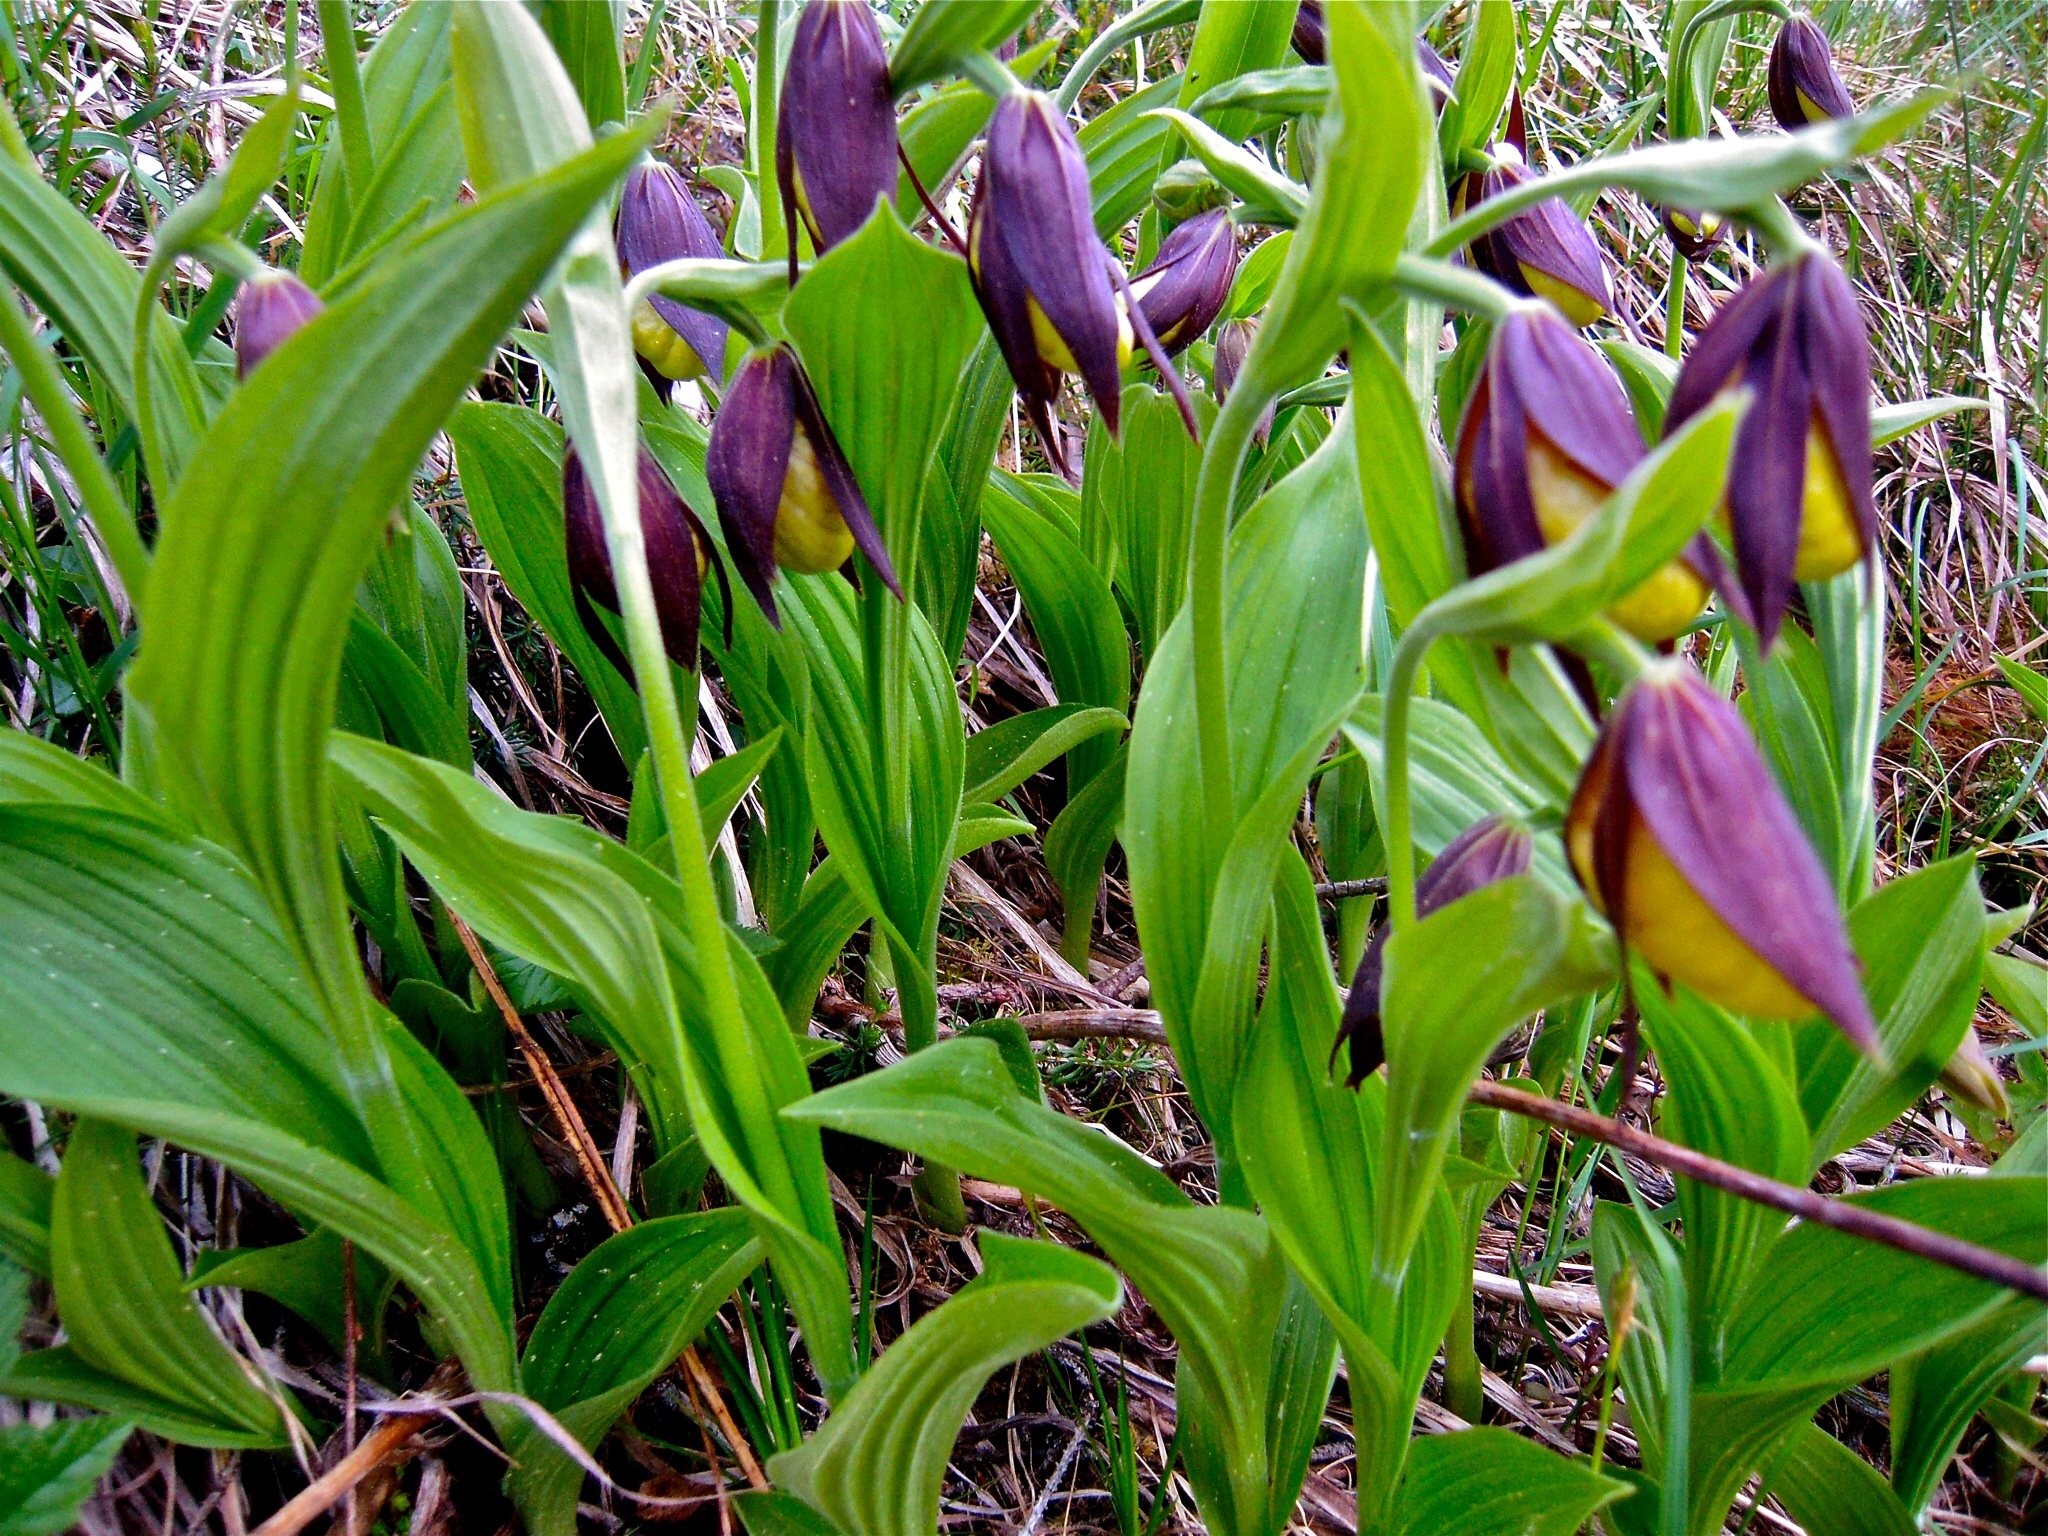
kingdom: Plantae
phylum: Tracheophyta
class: Liliopsida
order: Asparagales
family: Orchidaceae
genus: Cypripedium
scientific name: Cypripedium calceolus
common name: Lady's-slipper
